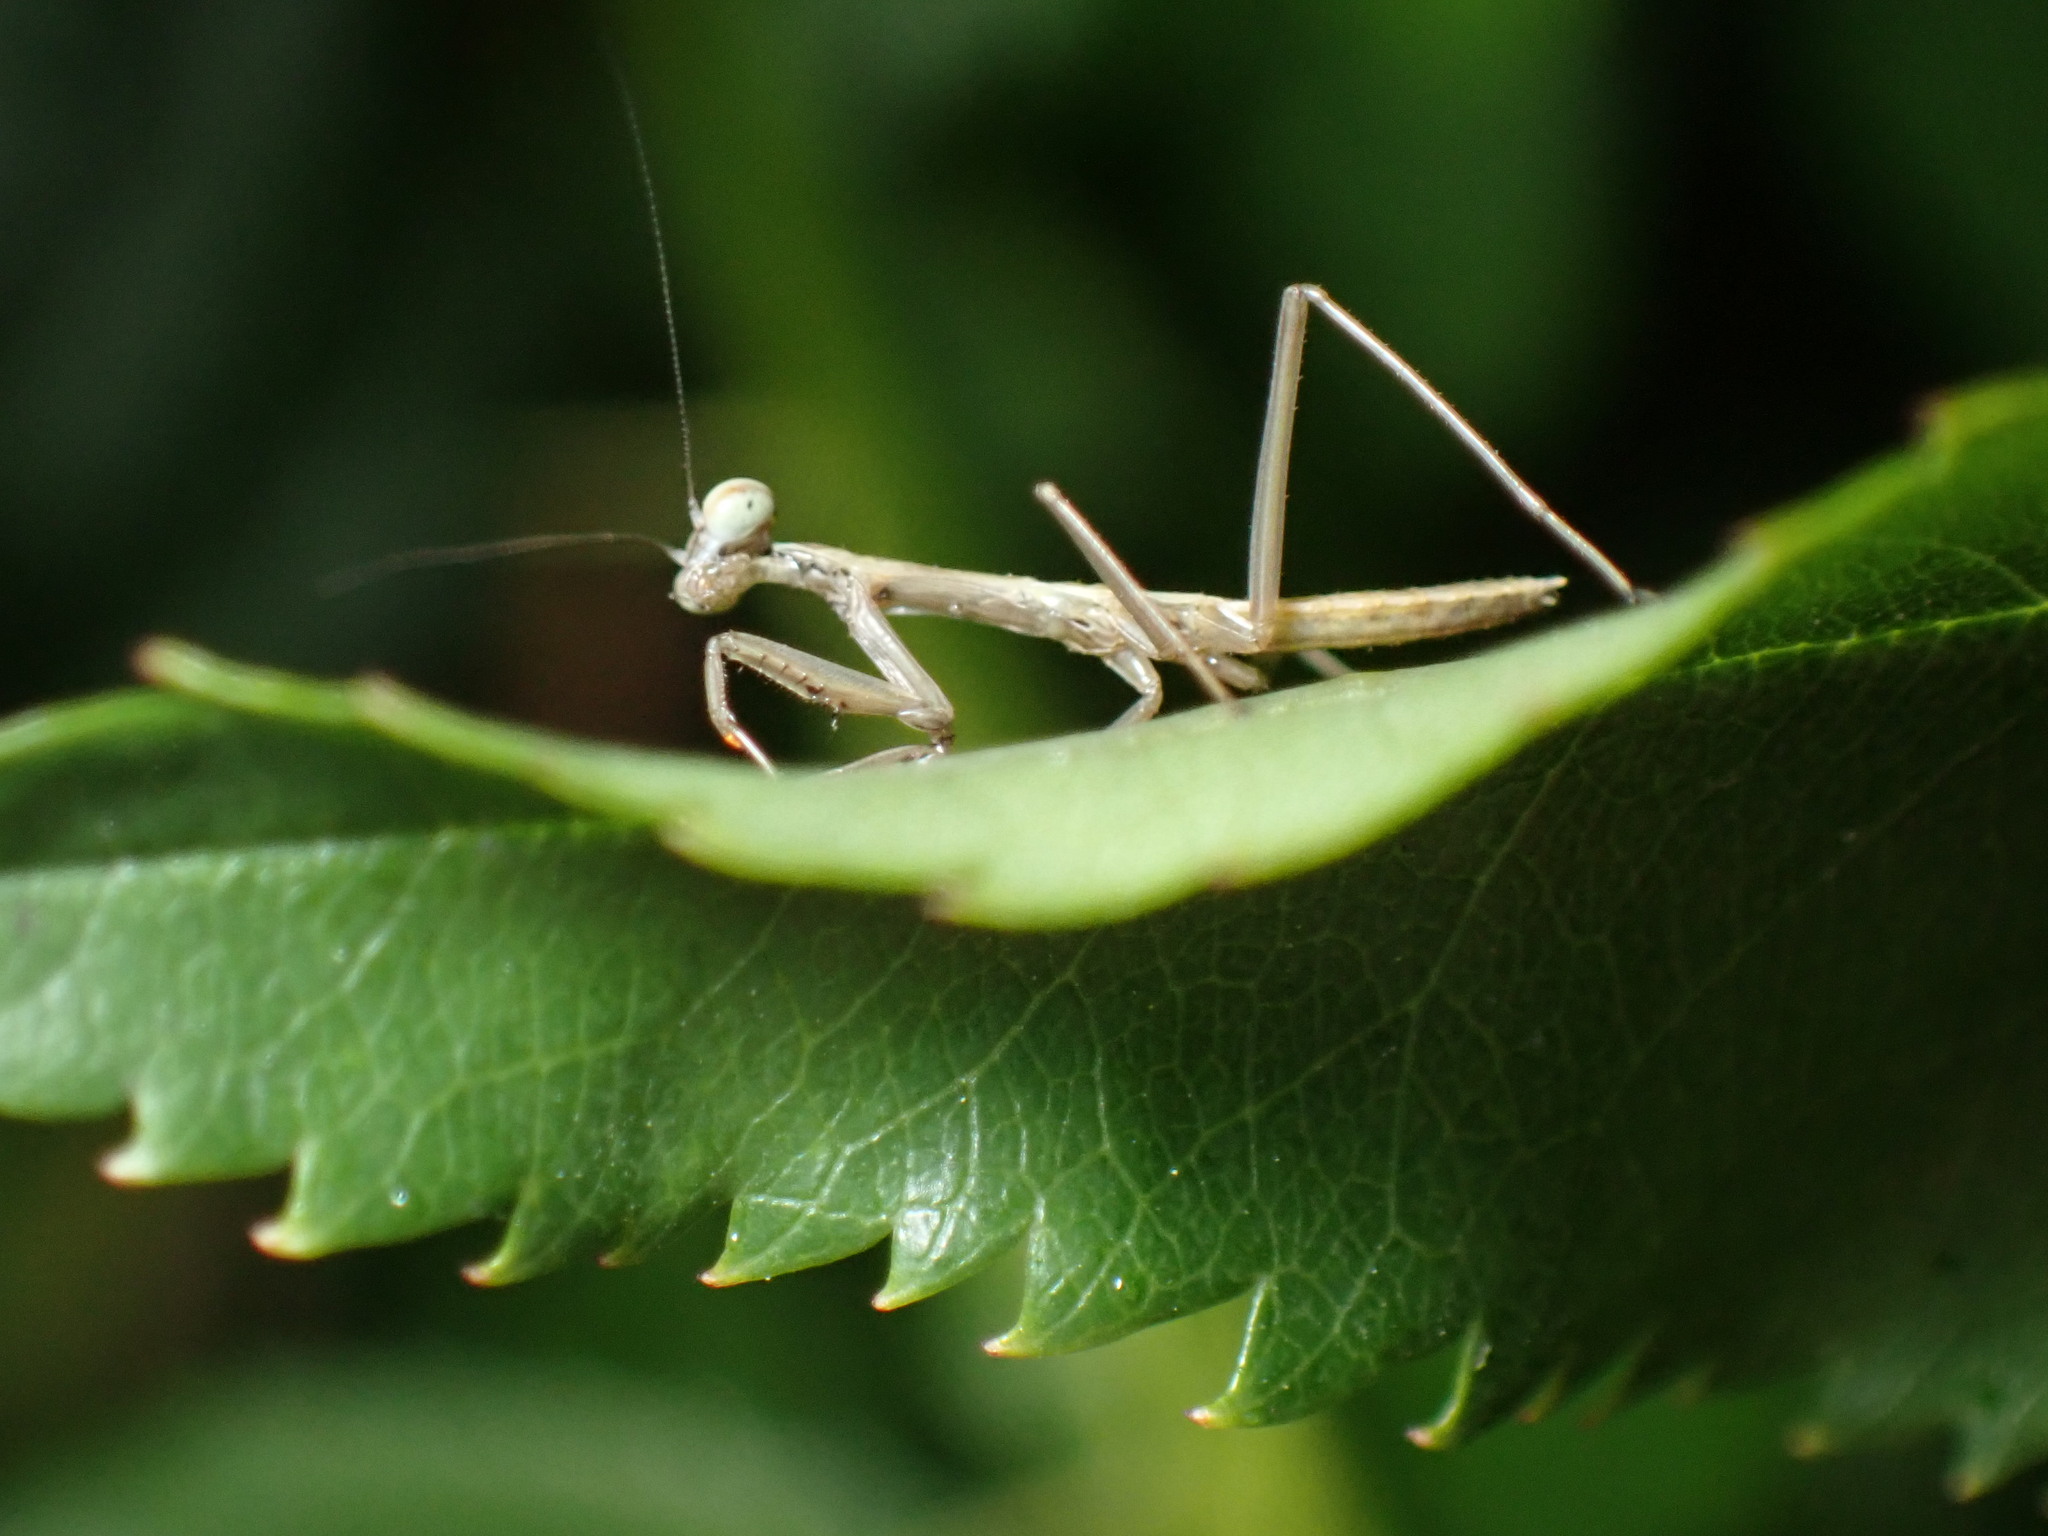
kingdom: Animalia
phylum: Arthropoda
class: Insecta
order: Mantodea
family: Mantidae
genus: Tenodera
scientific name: Tenodera sinensis
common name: Chinese mantis
